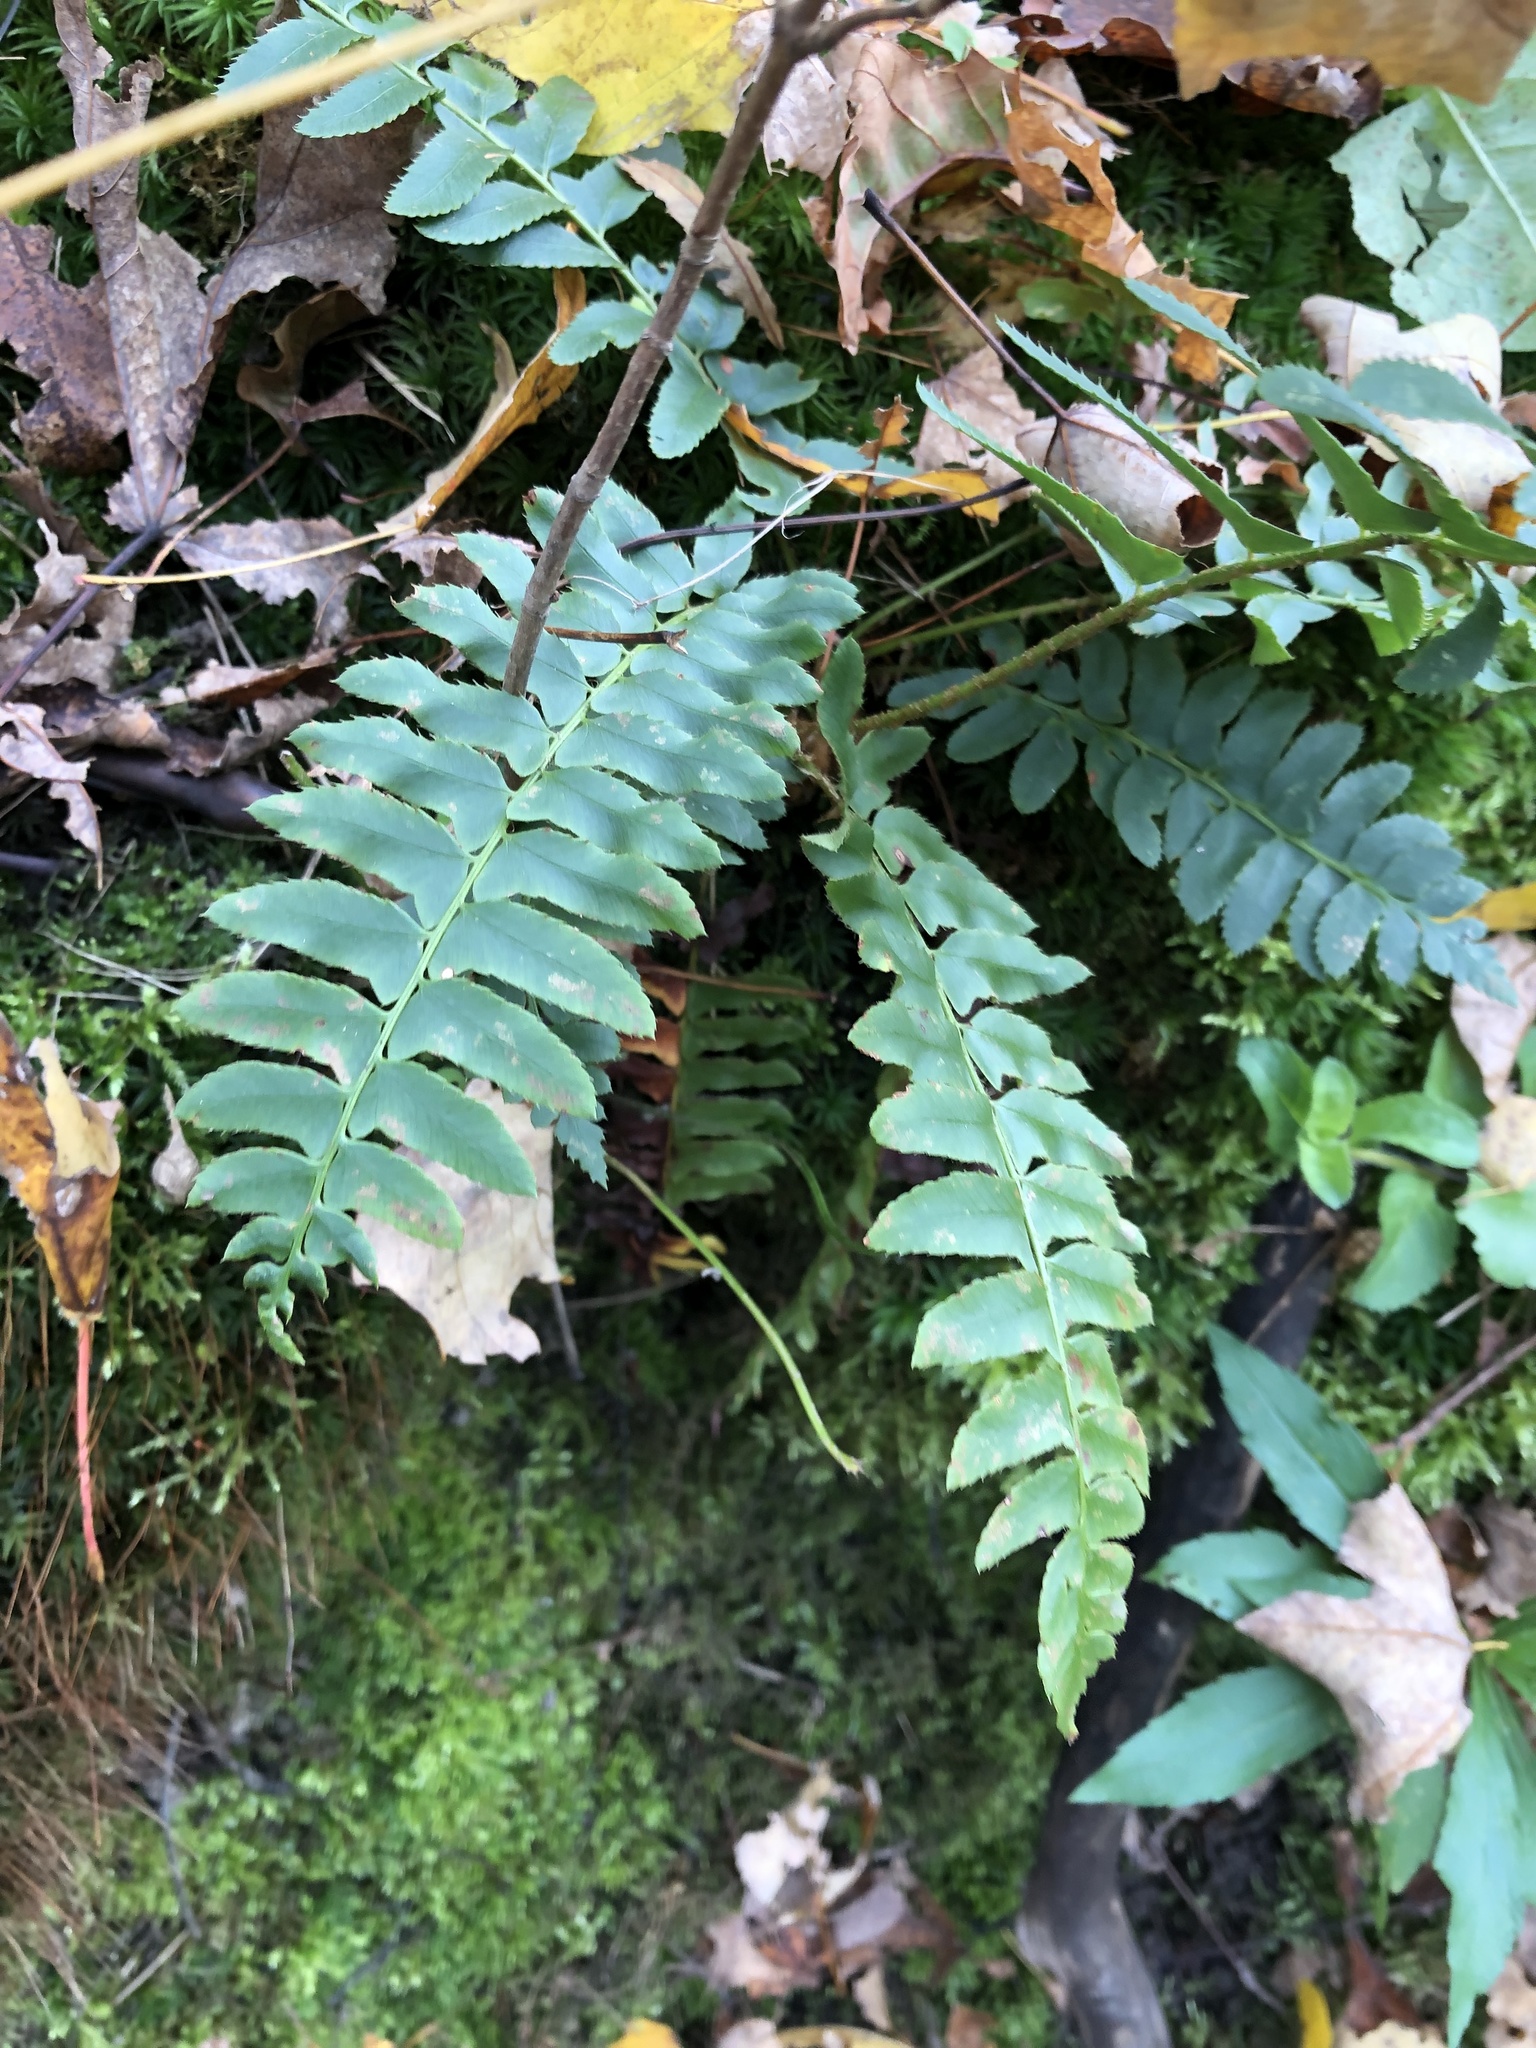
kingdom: Plantae
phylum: Tracheophyta
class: Polypodiopsida
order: Polypodiales
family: Dryopteridaceae
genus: Polystichum
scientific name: Polystichum acrostichoides
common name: Christmas fern
